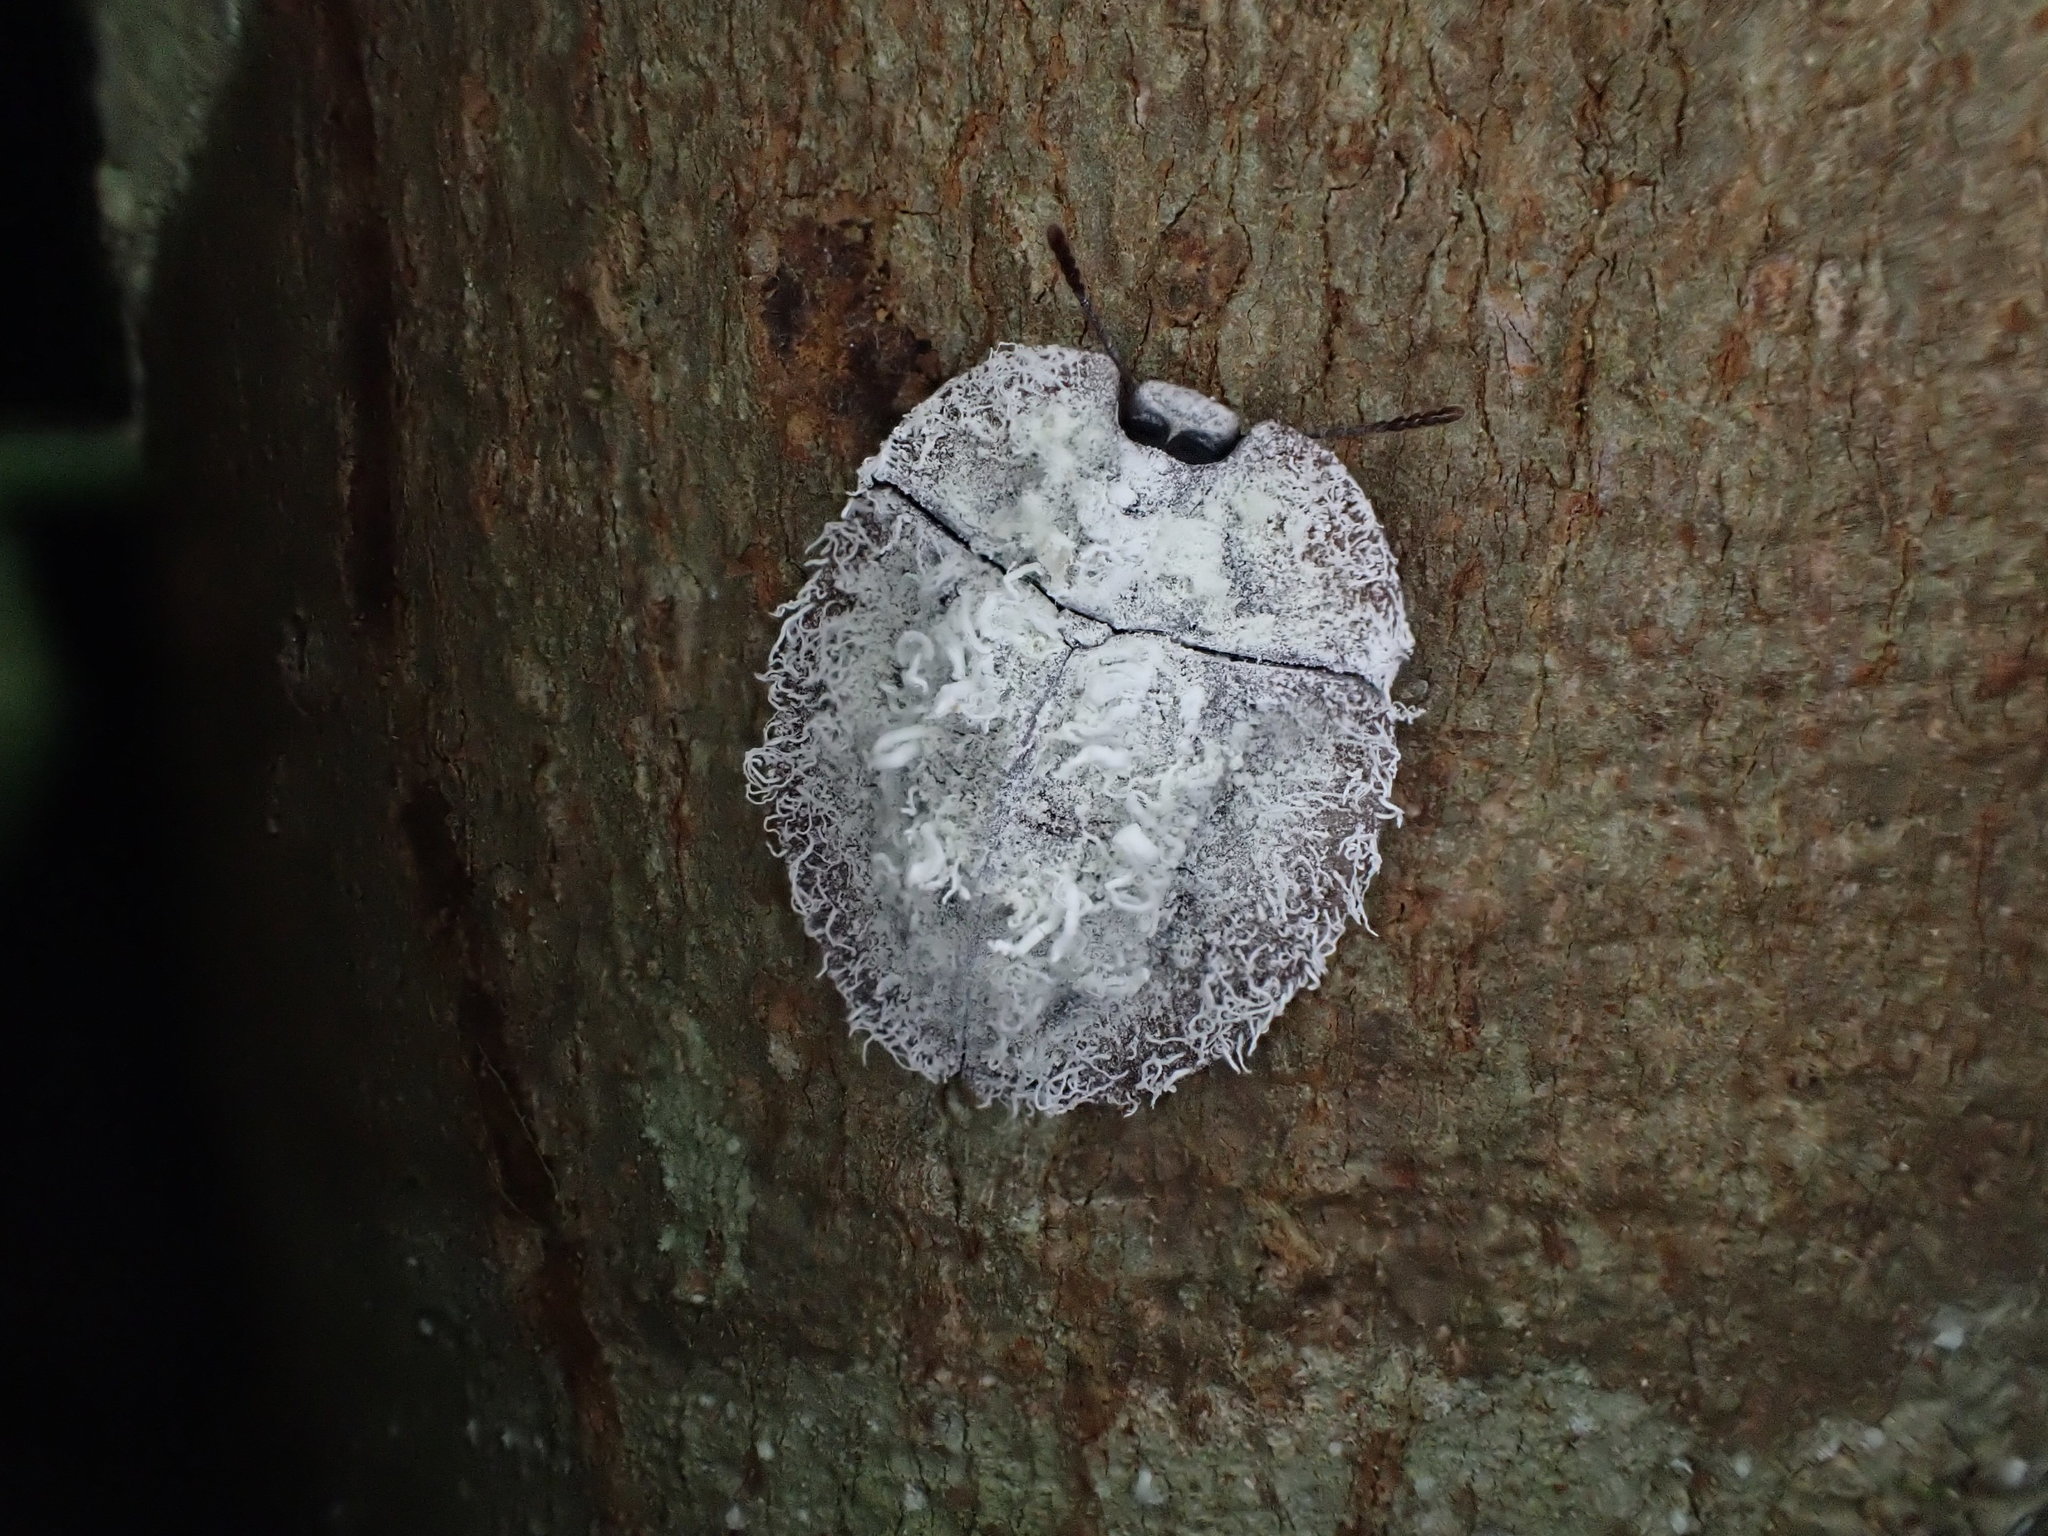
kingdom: Animalia
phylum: Arthropoda
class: Insecta
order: Coleoptera
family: Tenebrionidae
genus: Emcephalus
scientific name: Emcephalus
